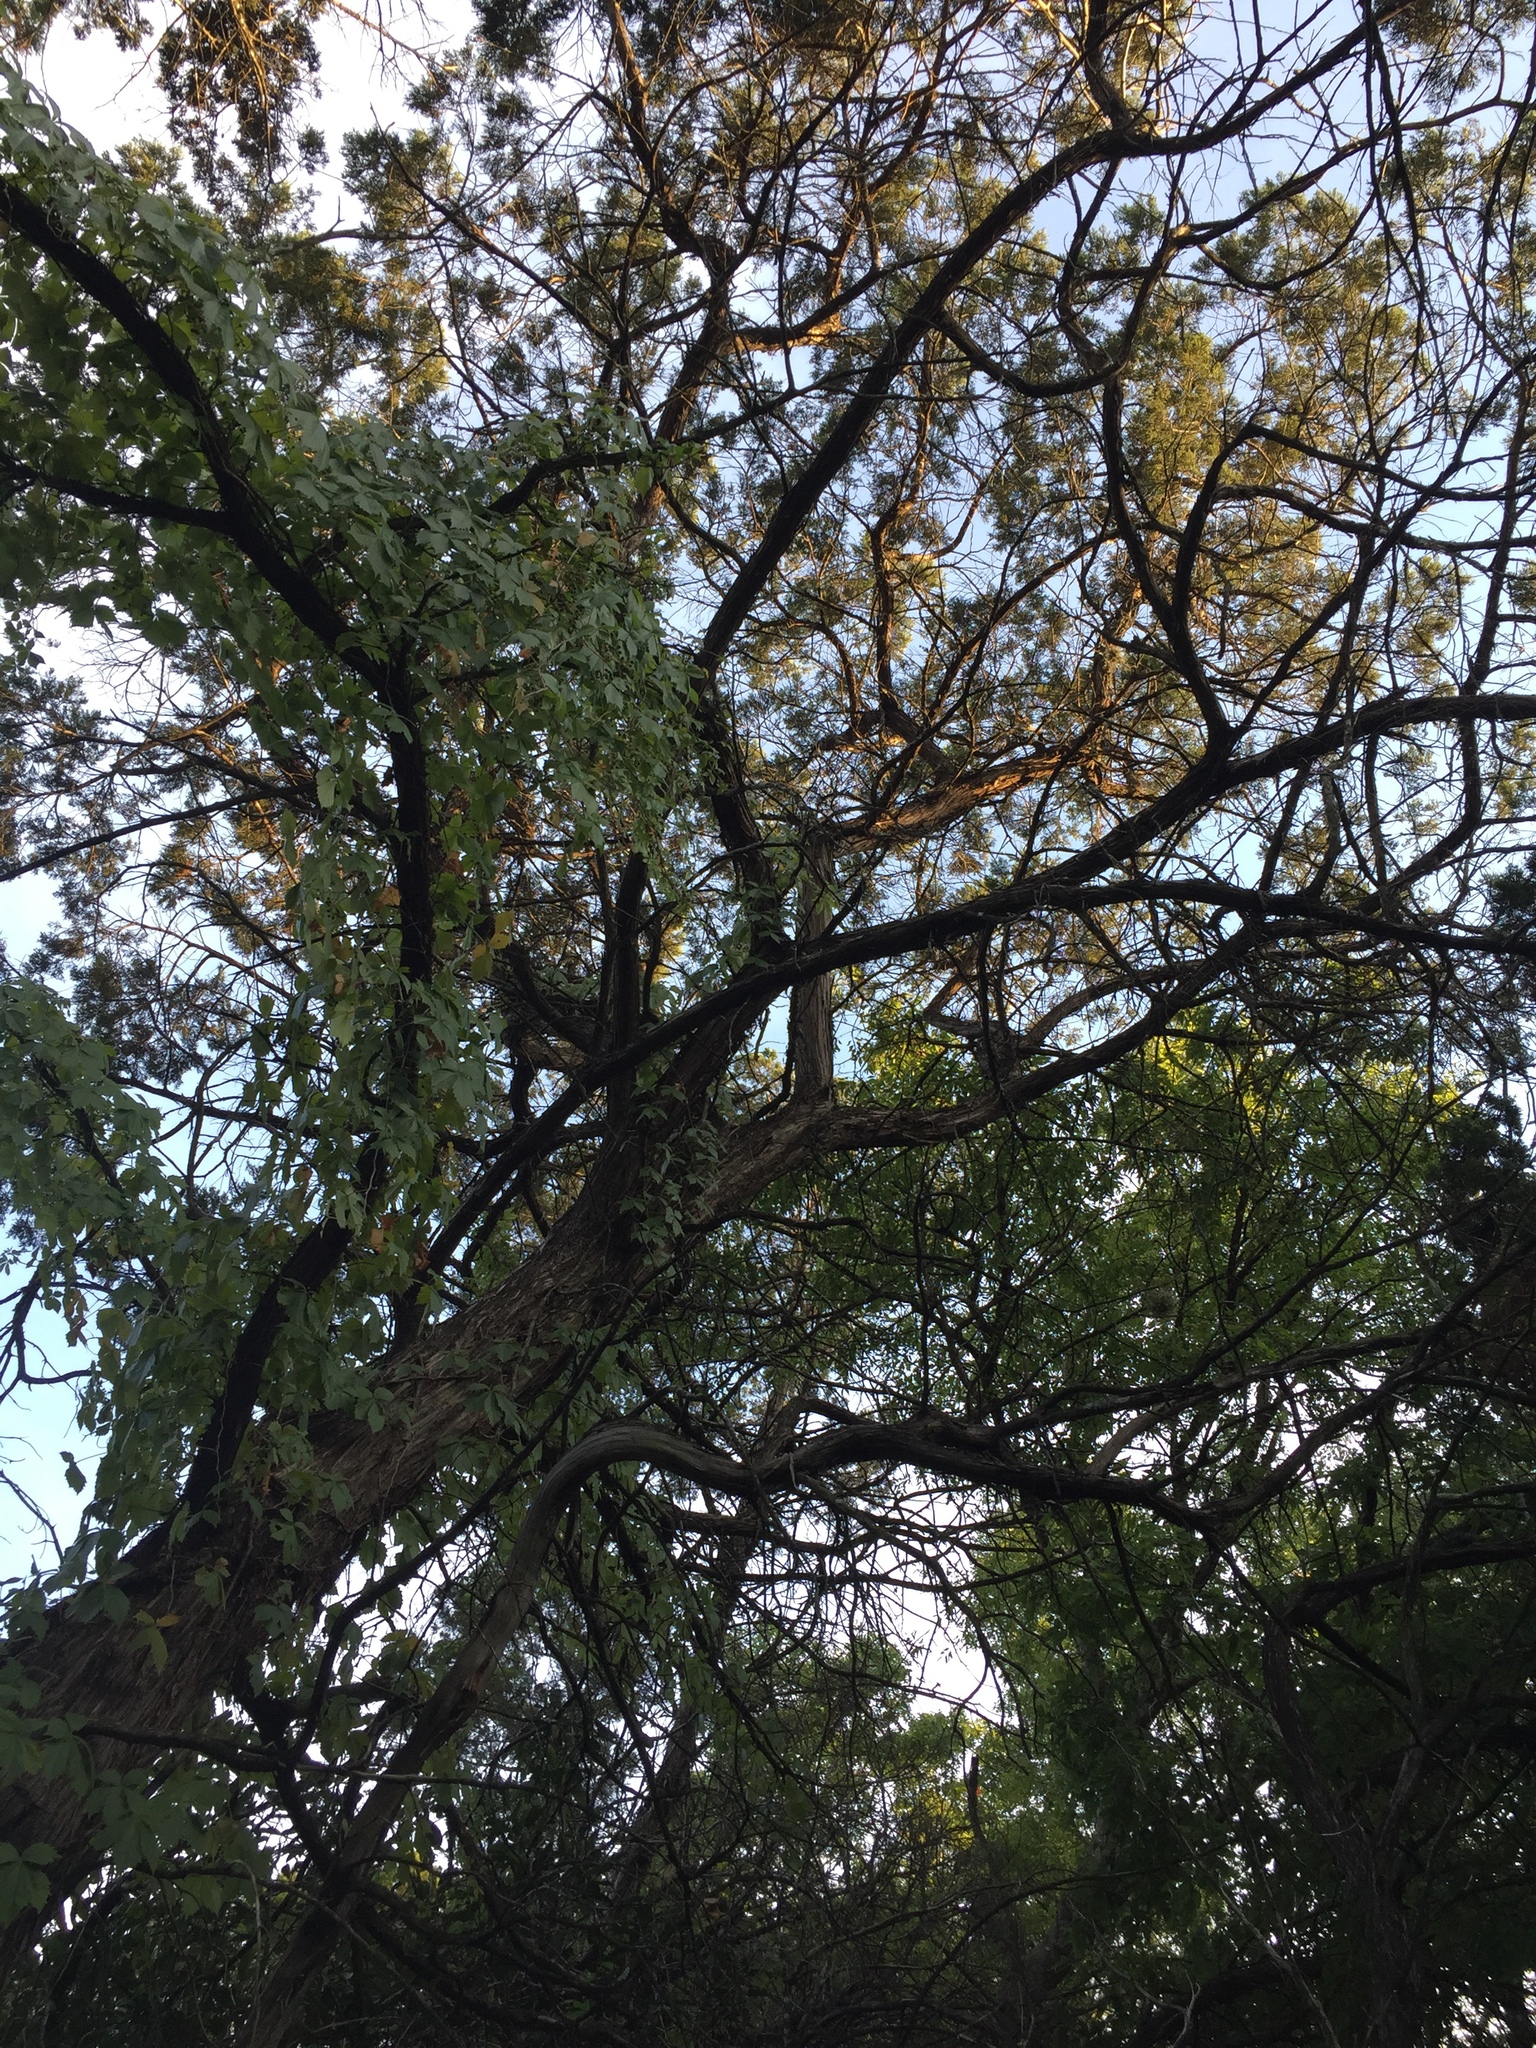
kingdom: Plantae
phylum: Tracheophyta
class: Pinopsida
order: Pinales
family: Cupressaceae
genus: Juniperus
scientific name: Juniperus ashei
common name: Mexican juniper
